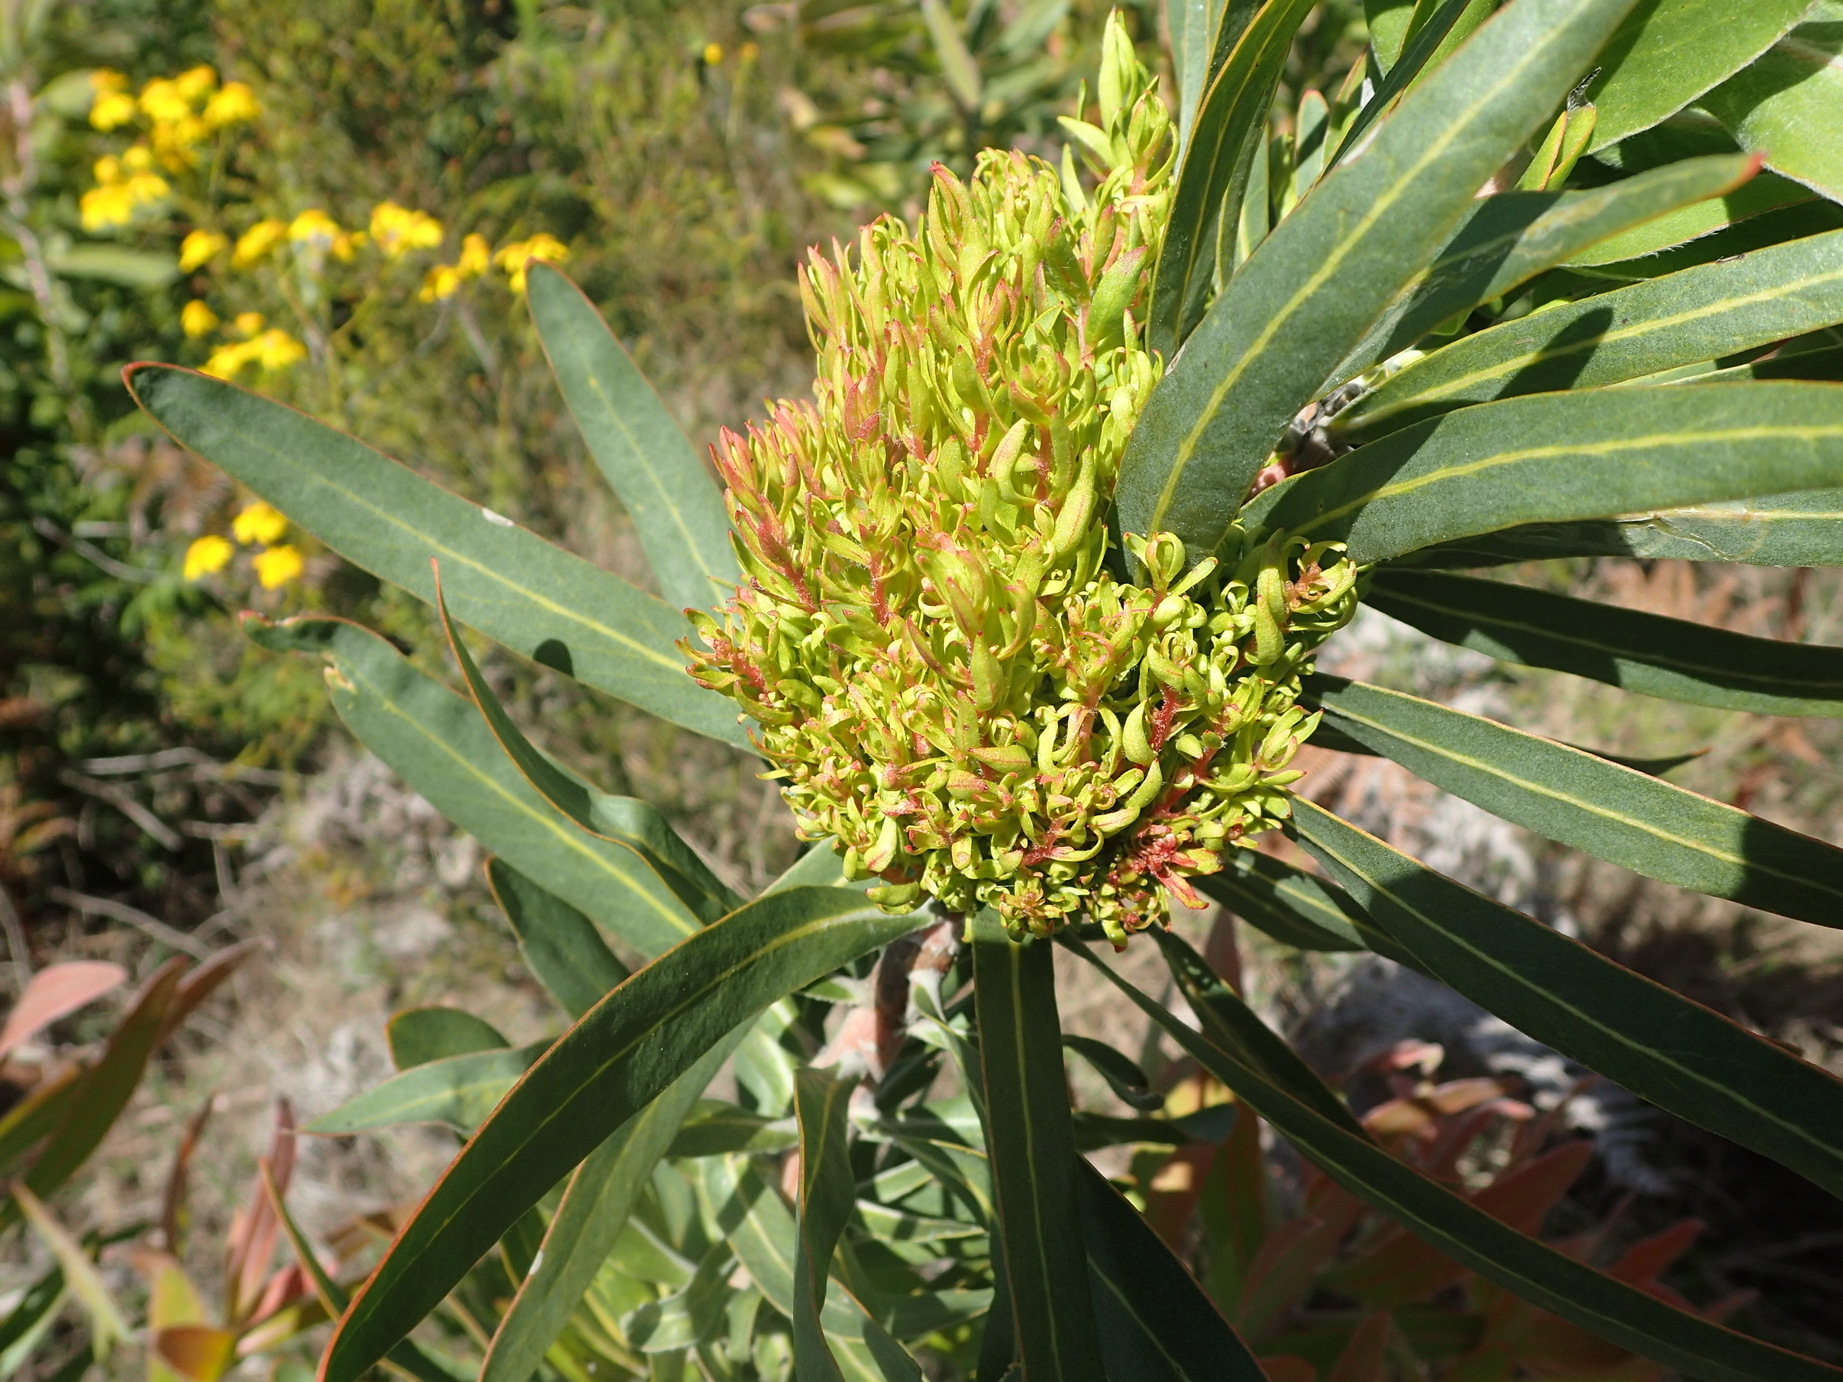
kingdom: Bacteria
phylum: Firmicutes
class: Bacilli
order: Acholeplasmatales
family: Acholeplasmataceae
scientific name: Acholeplasmataceae
